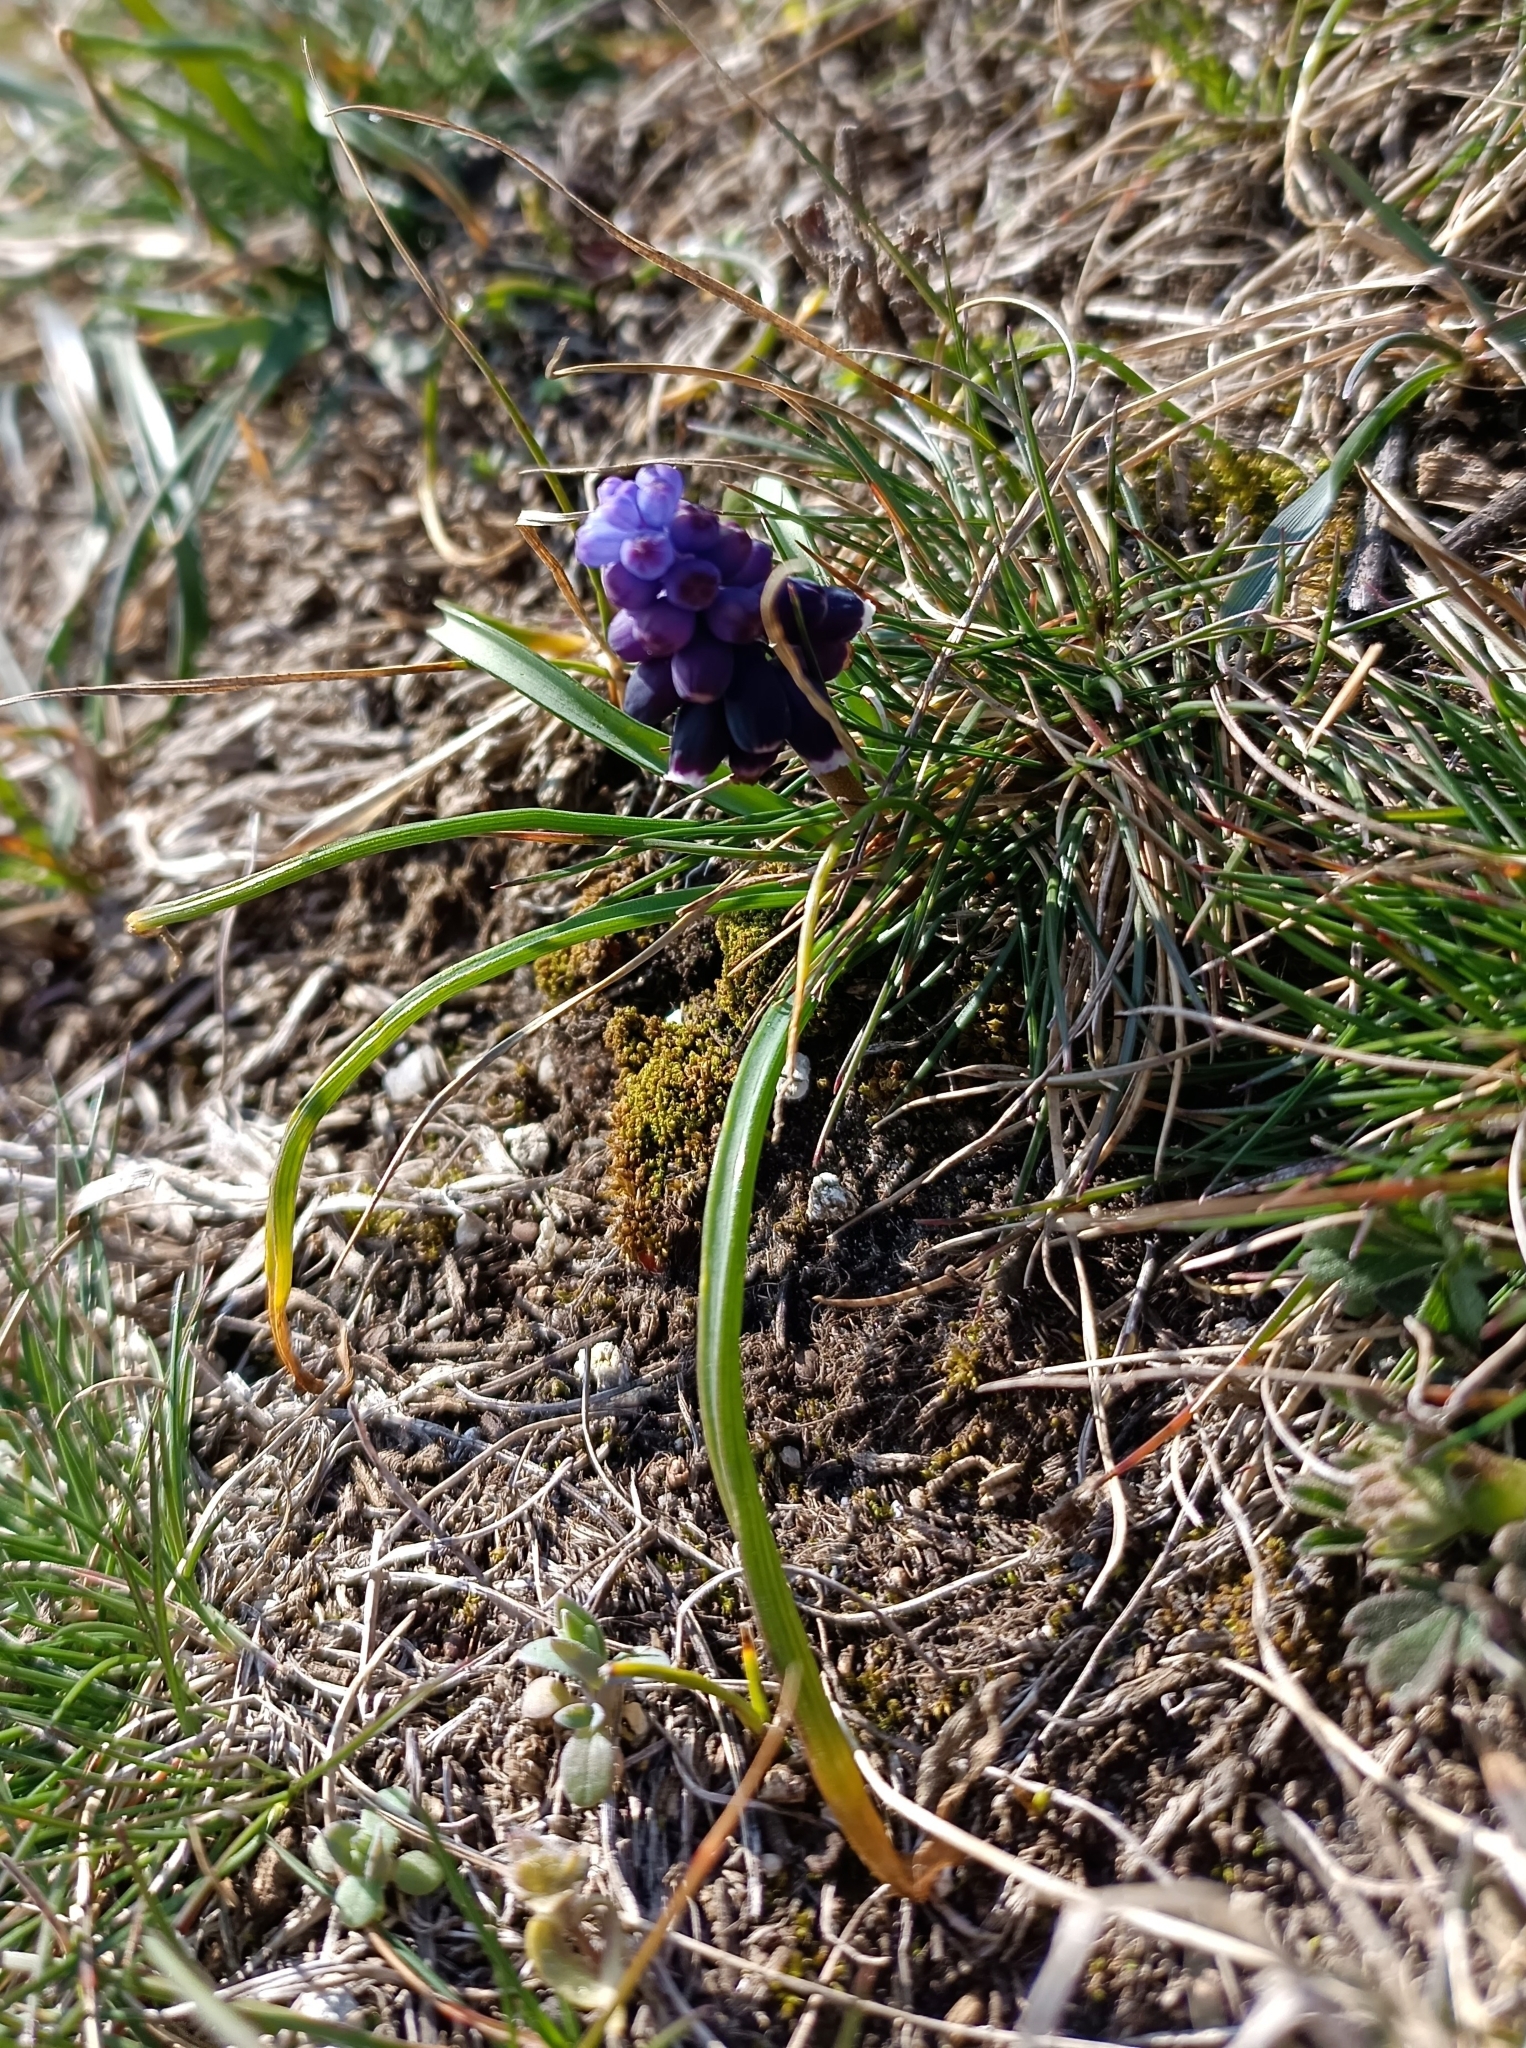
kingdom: Plantae
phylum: Tracheophyta
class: Liliopsida
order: Asparagales
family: Asparagaceae
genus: Muscari
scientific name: Muscari neglectum
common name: Grape-hyacinth
